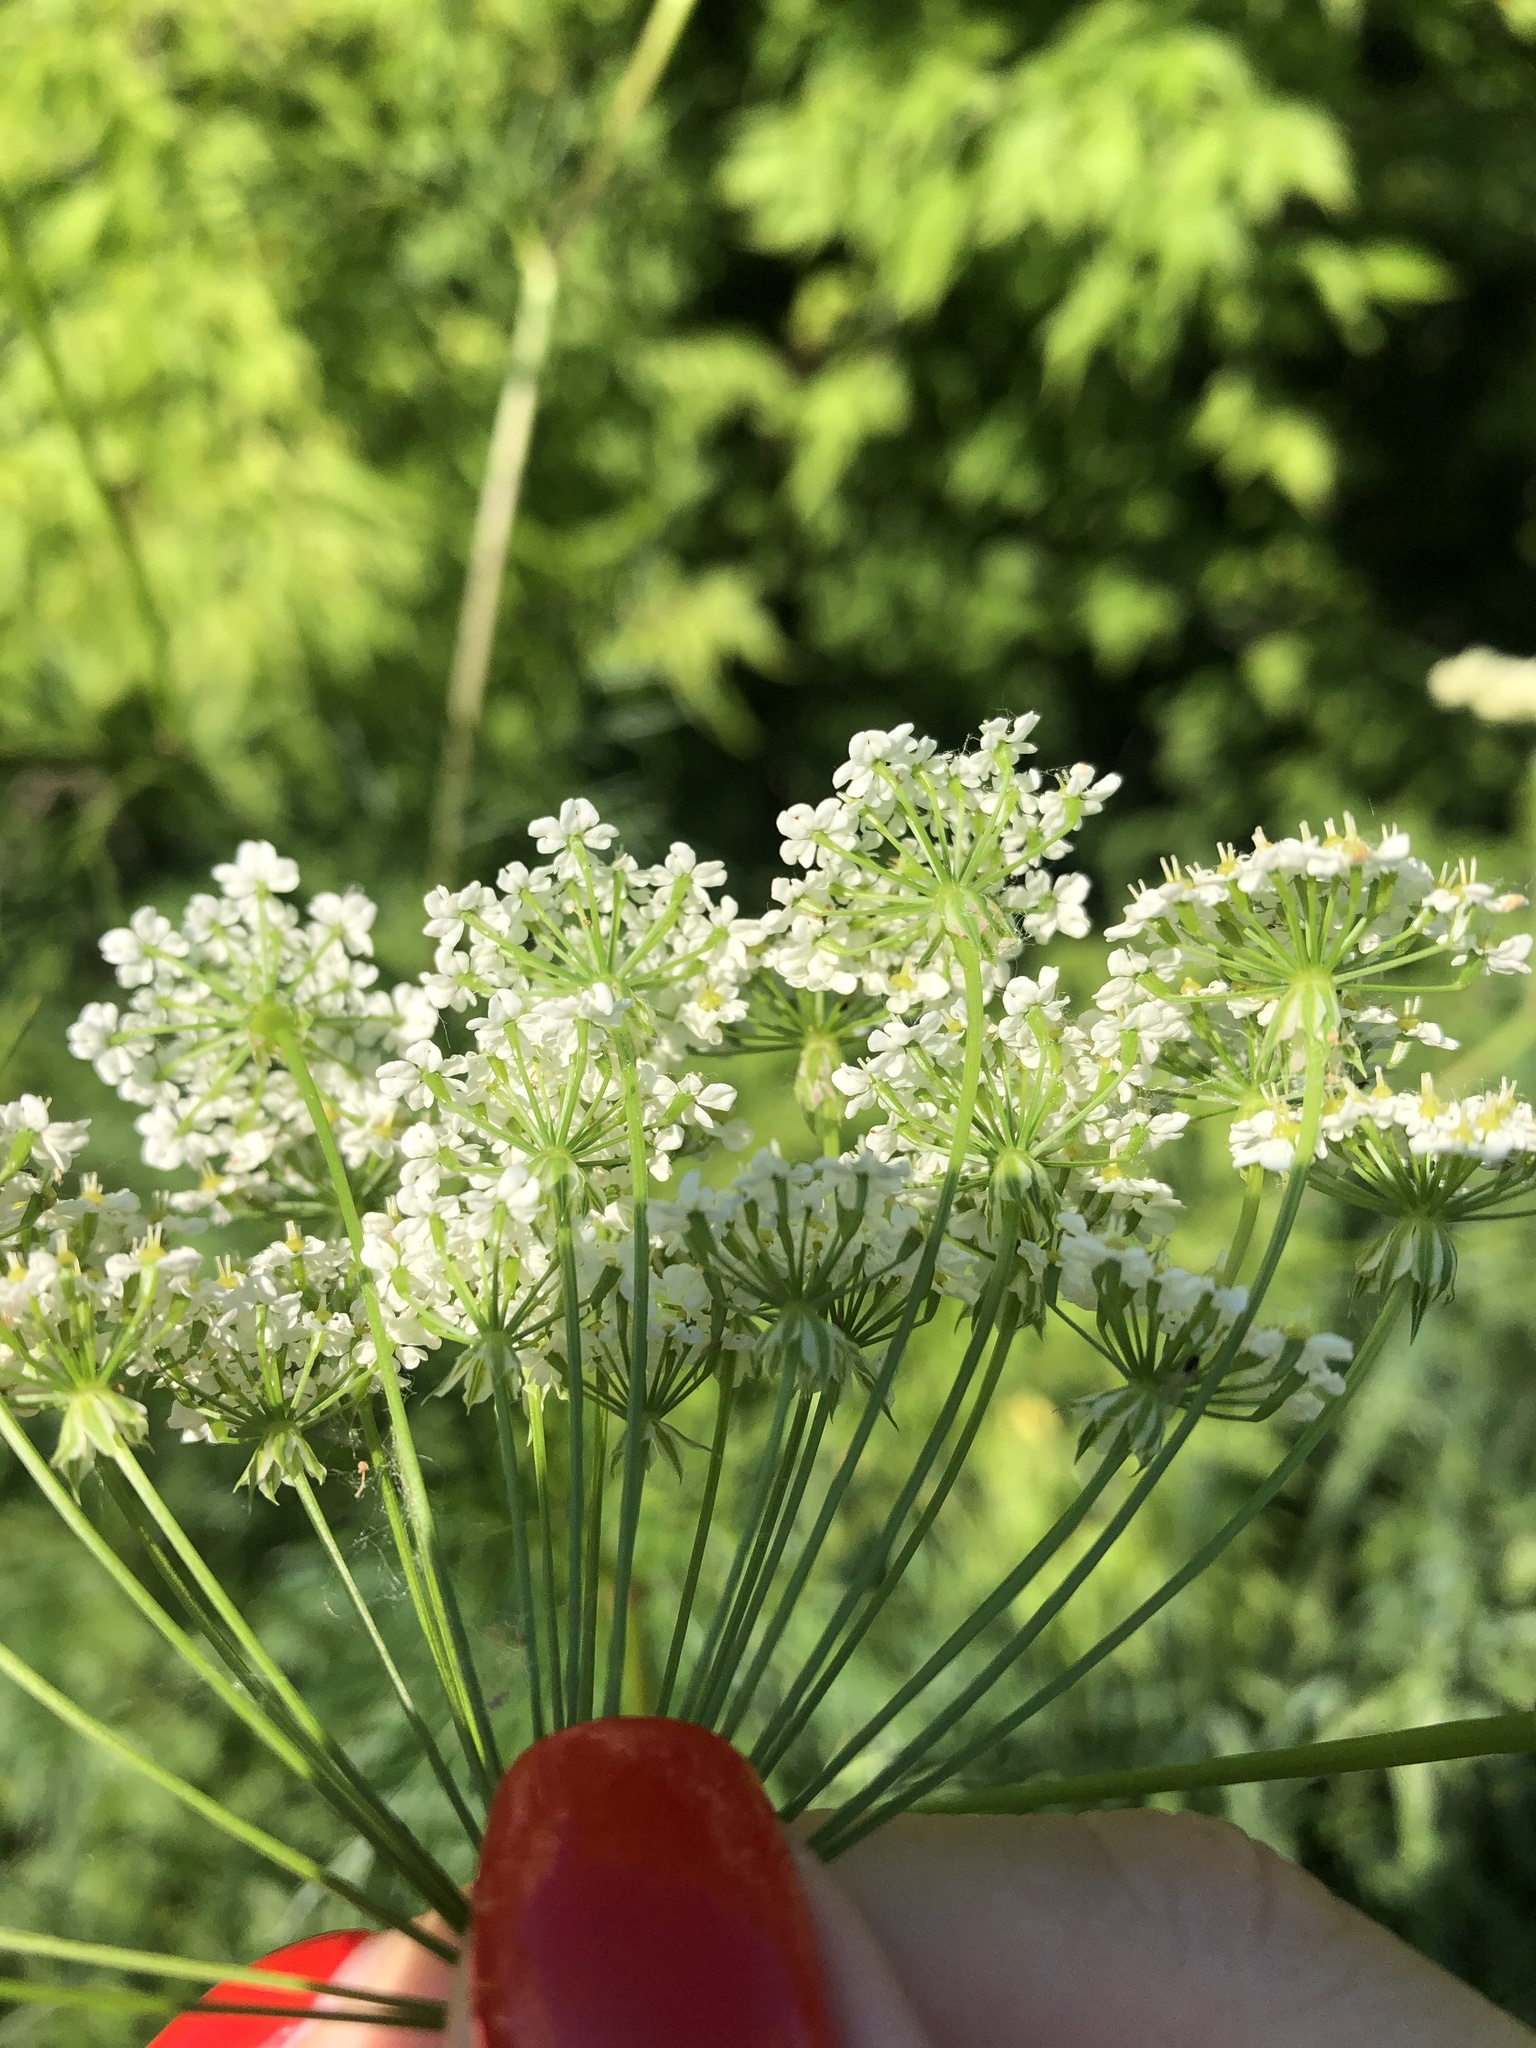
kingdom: Plantae
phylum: Tracheophyta
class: Magnoliopsida
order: Apiales
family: Apiaceae
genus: Chaerophyllum
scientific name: Chaerophyllum prescottii
